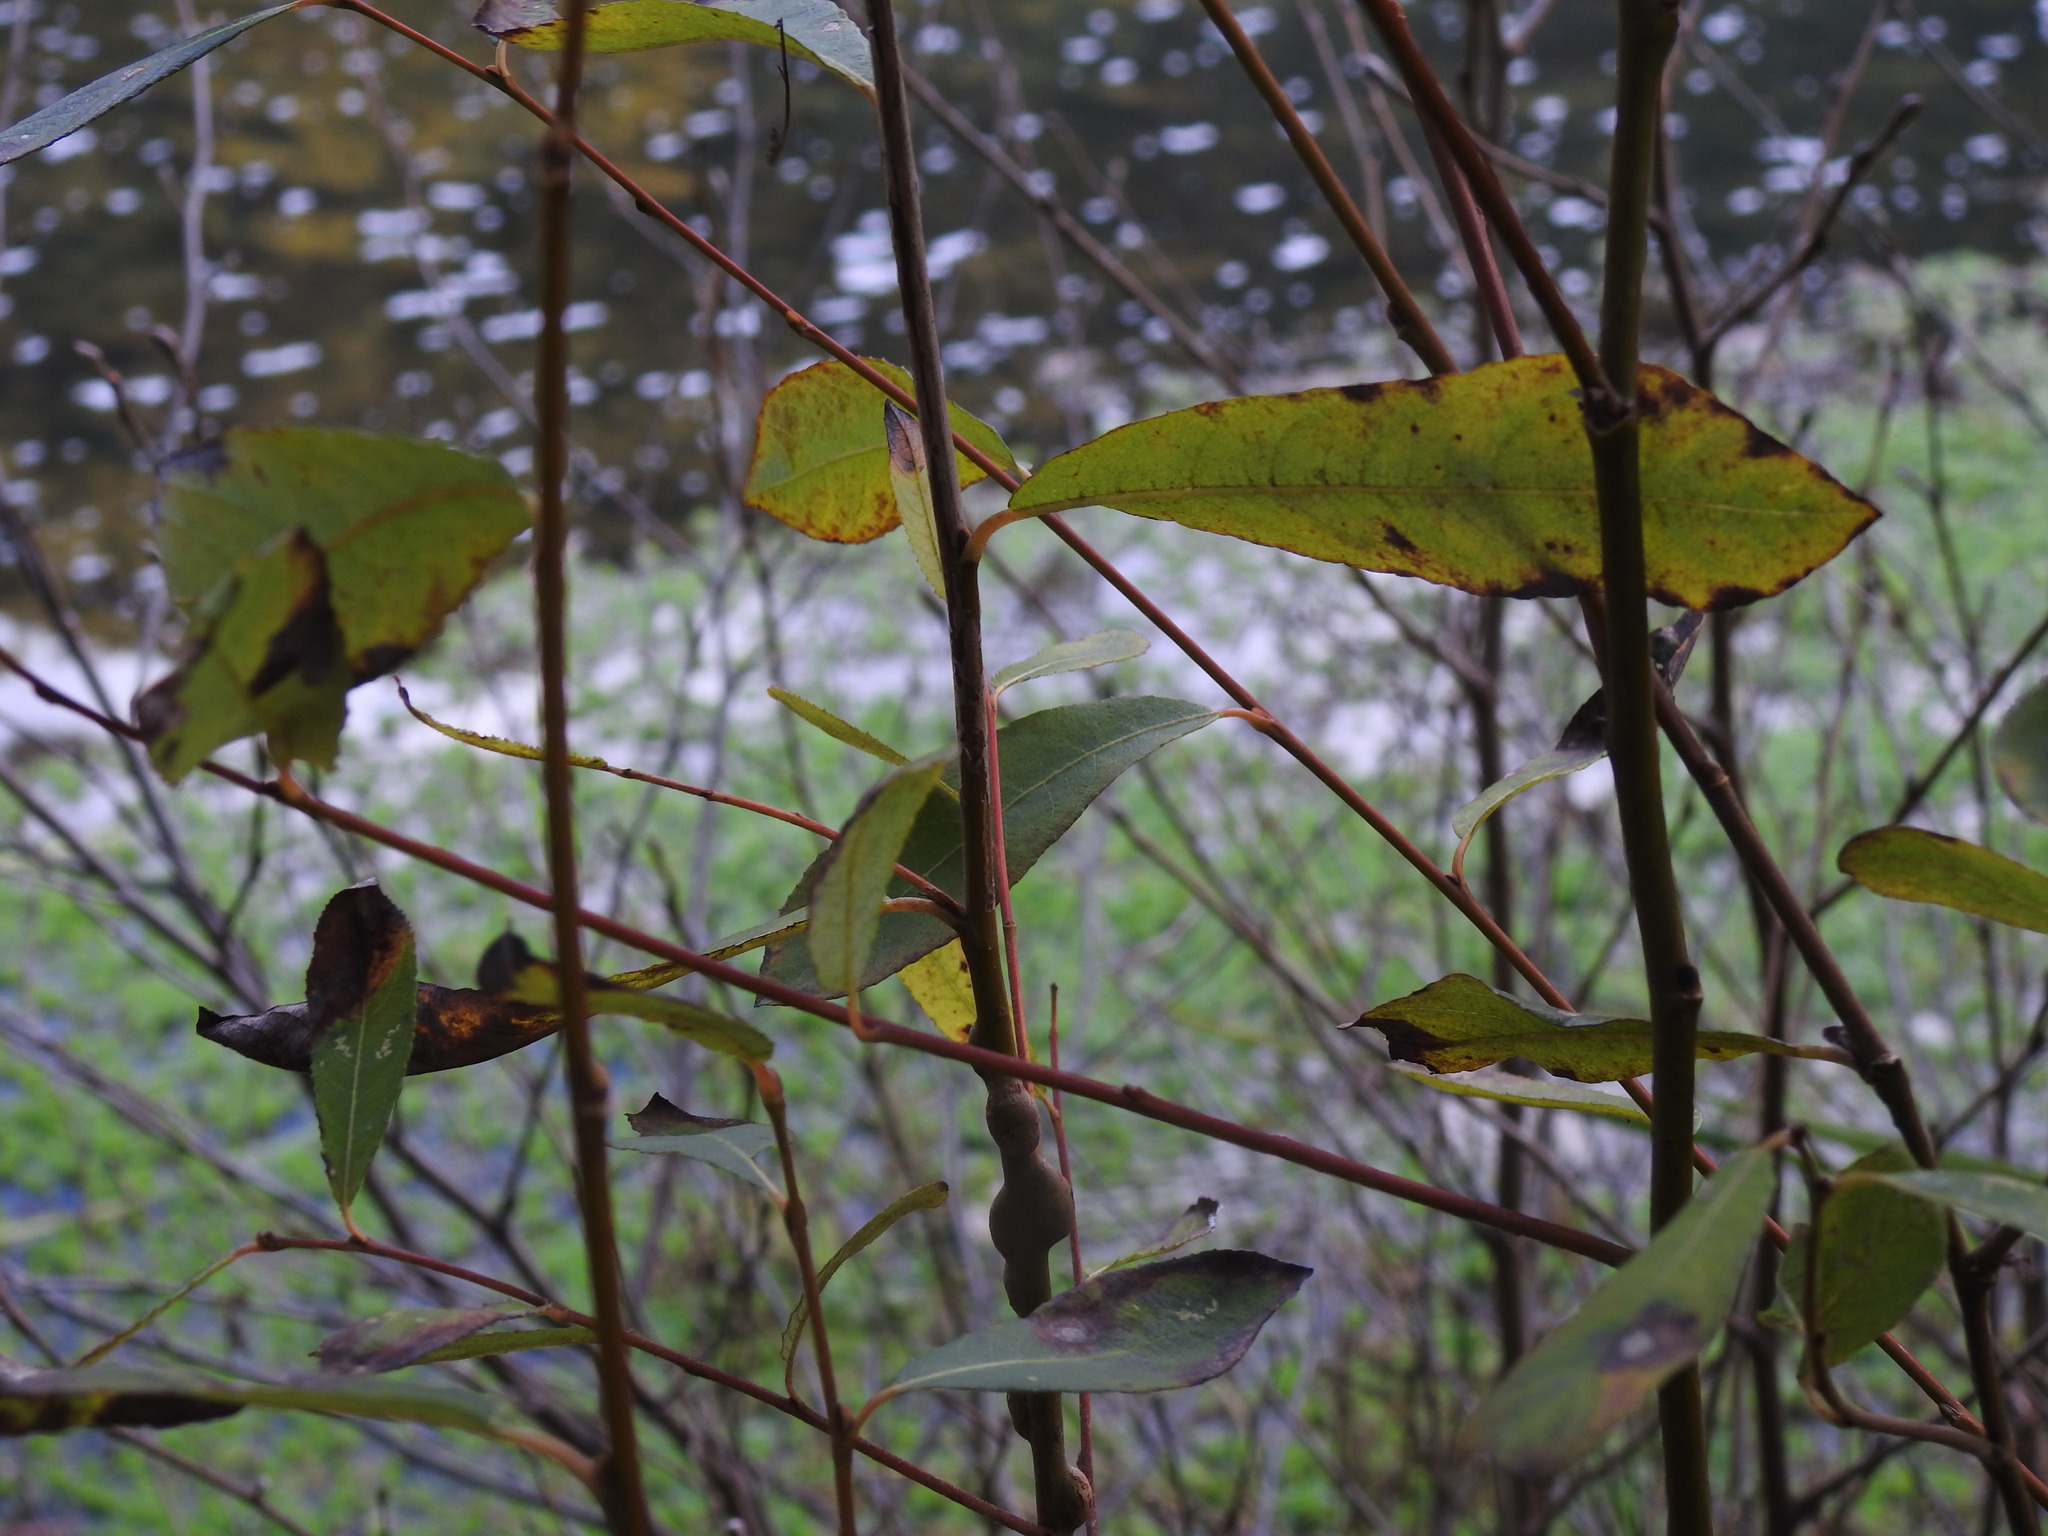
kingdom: Plantae
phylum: Tracheophyta
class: Magnoliopsida
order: Malpighiales
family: Salicaceae
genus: Salix
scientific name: Salix atrocinerea
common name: Rusty willow
